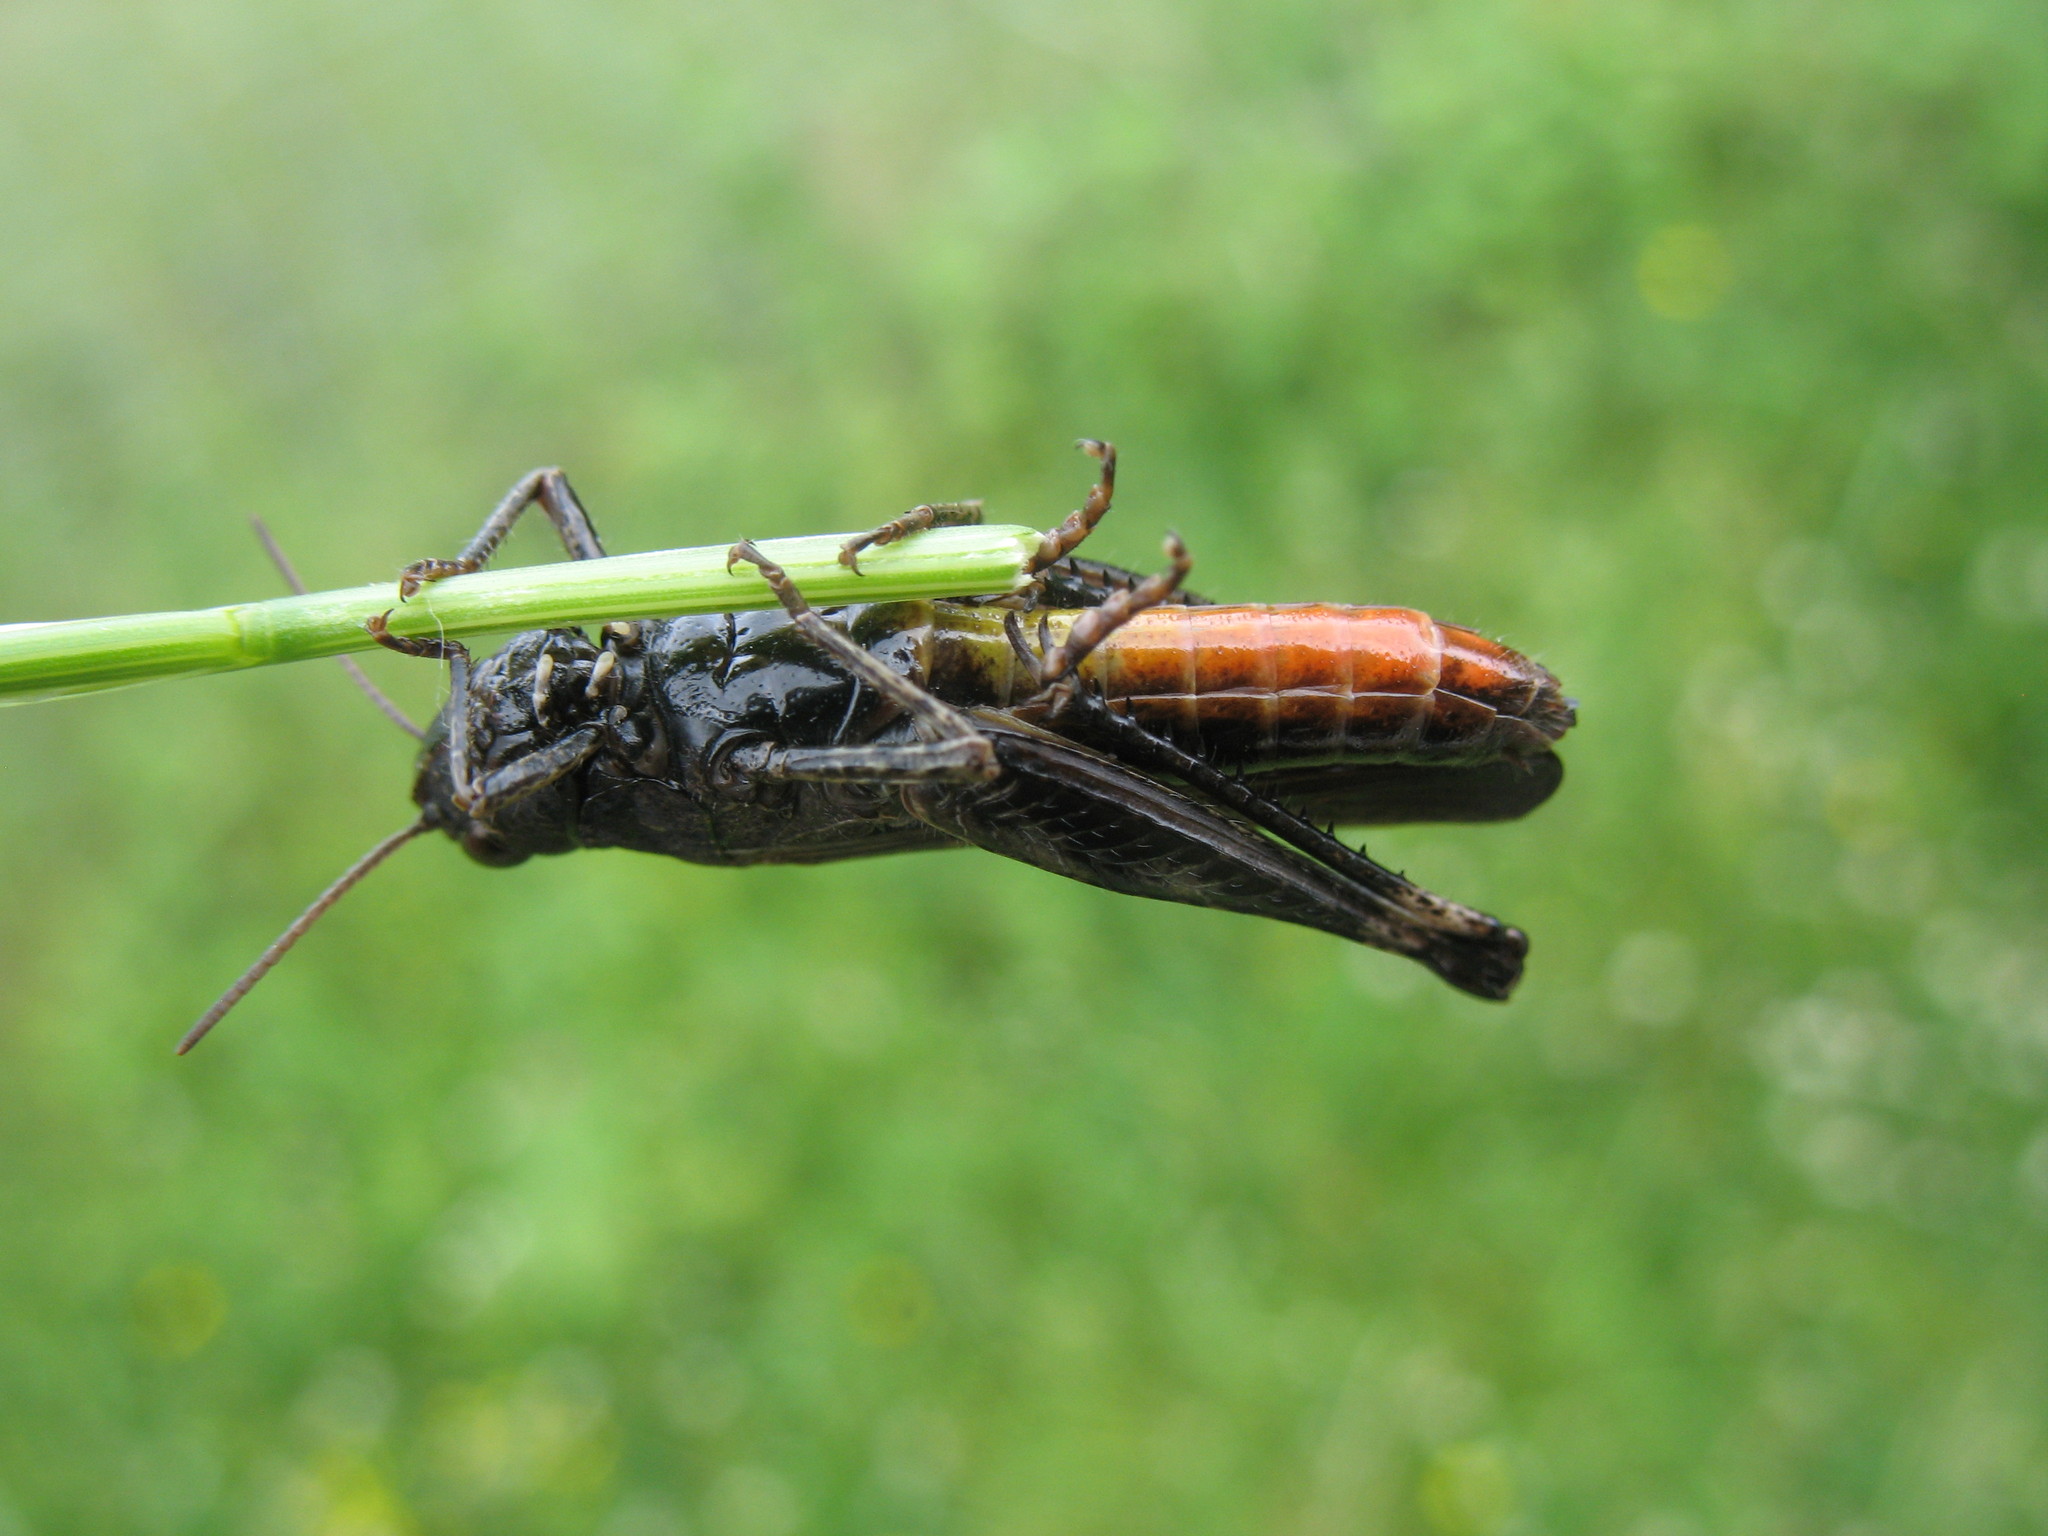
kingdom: Animalia
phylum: Arthropoda
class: Insecta
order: Orthoptera
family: Acrididae
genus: Omocestus
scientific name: Omocestus rufipes
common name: Woodland grasshopper
